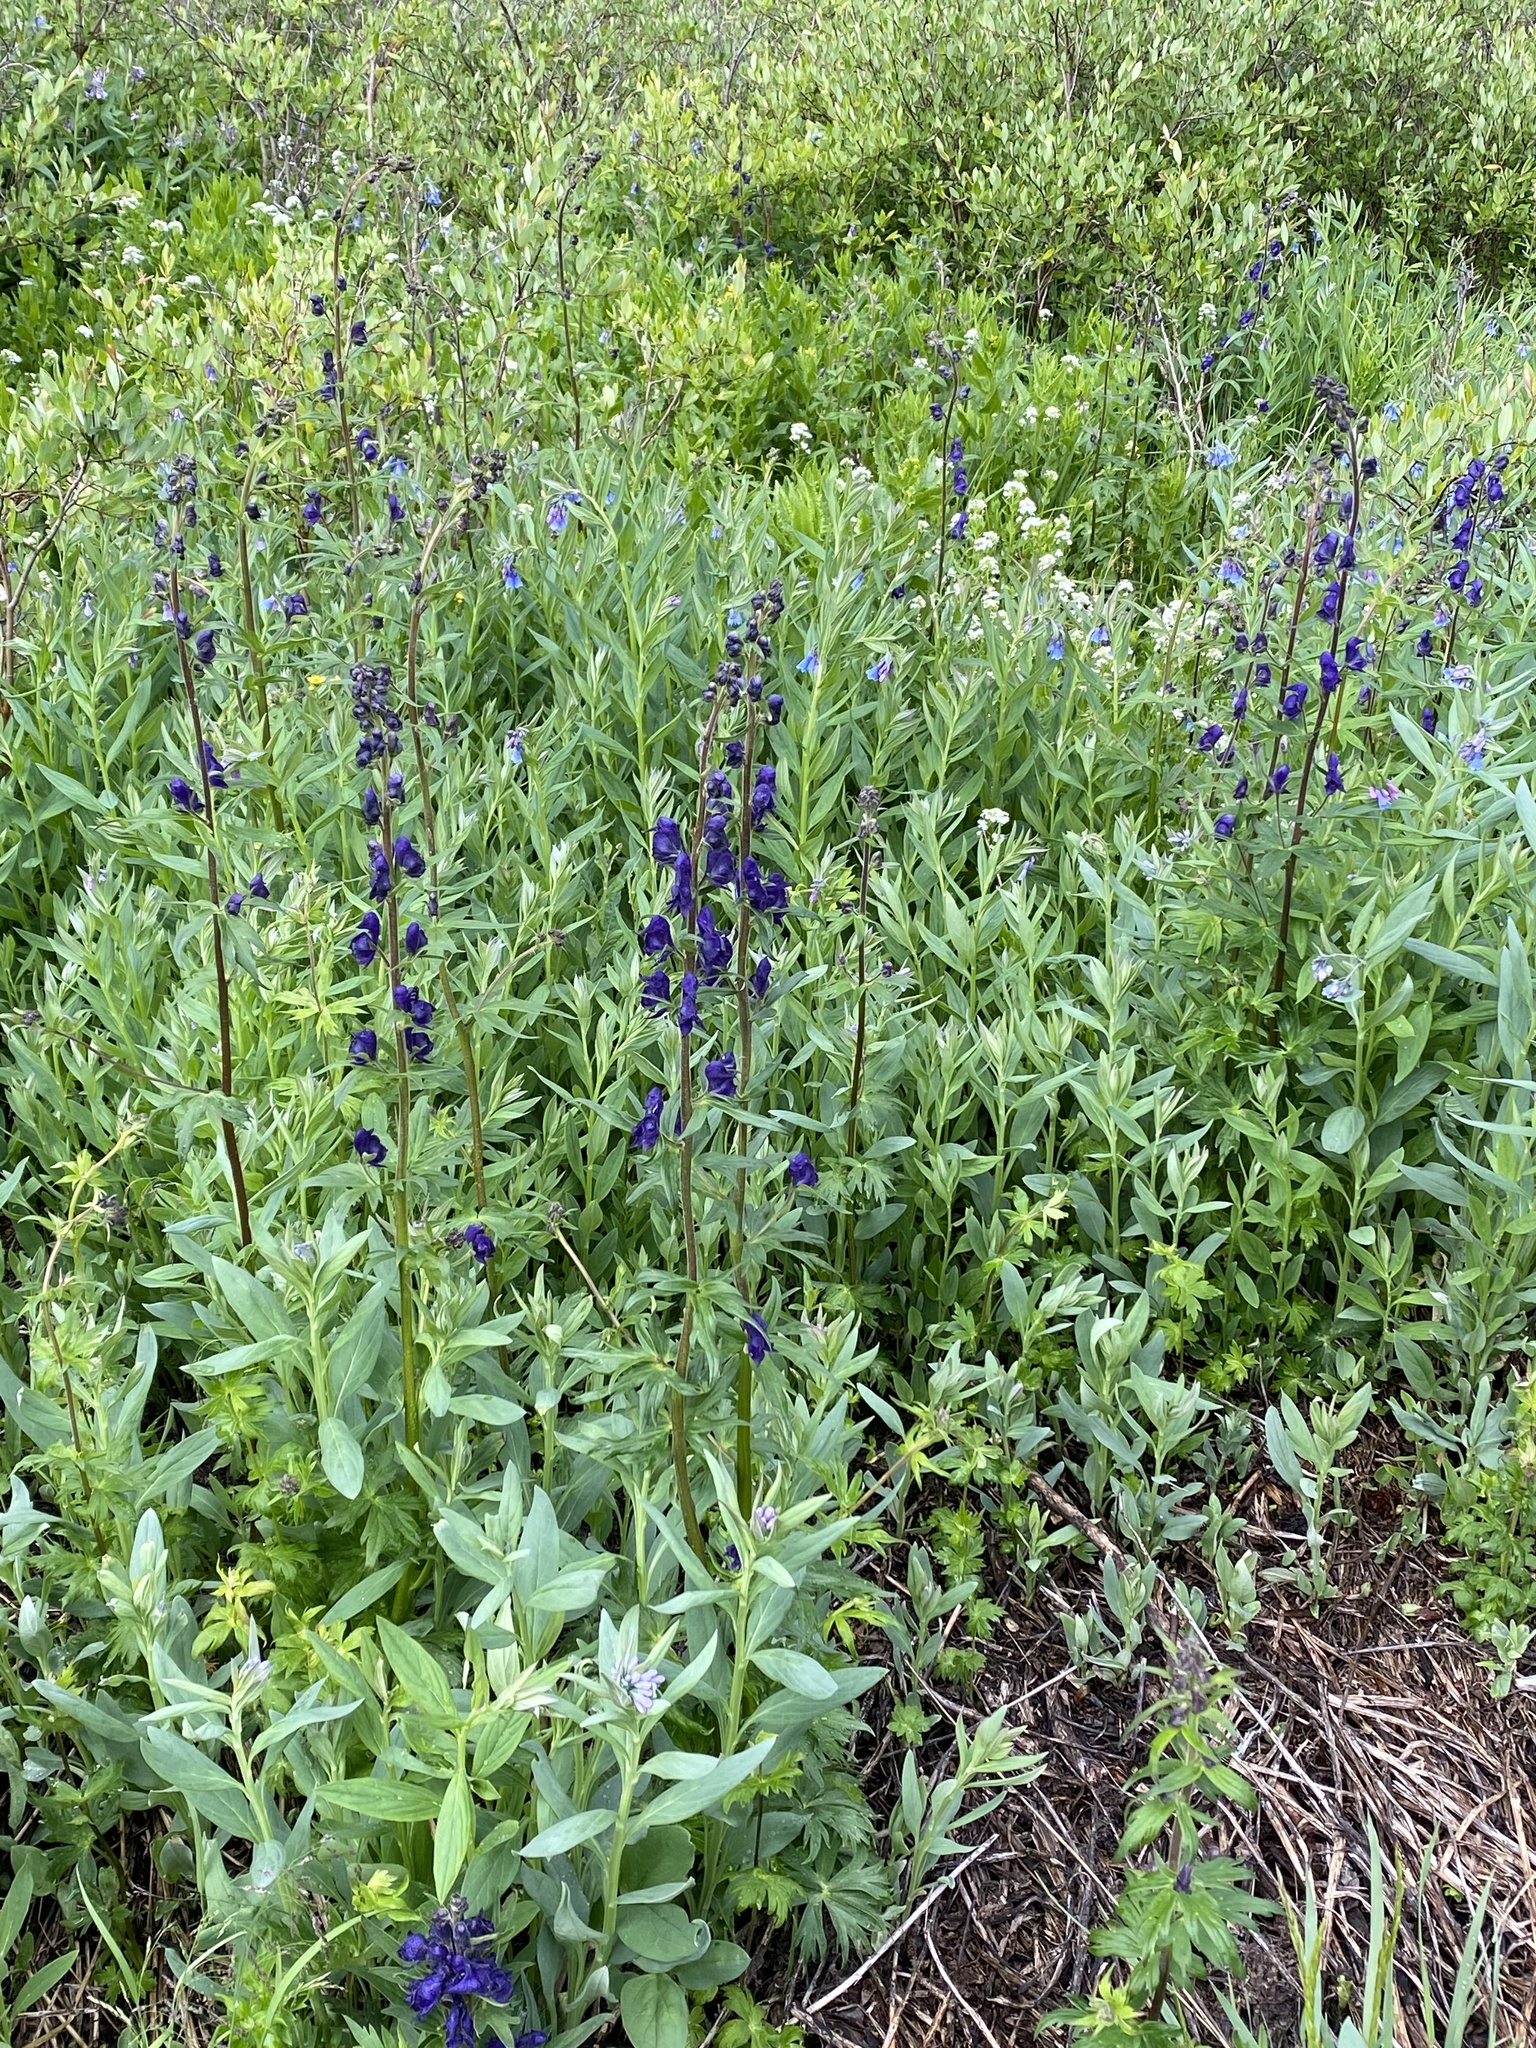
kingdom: Plantae
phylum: Tracheophyta
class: Magnoliopsida
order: Ranunculales
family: Ranunculaceae
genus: Aconitum
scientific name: Aconitum columbianum
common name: Columbia aconite
